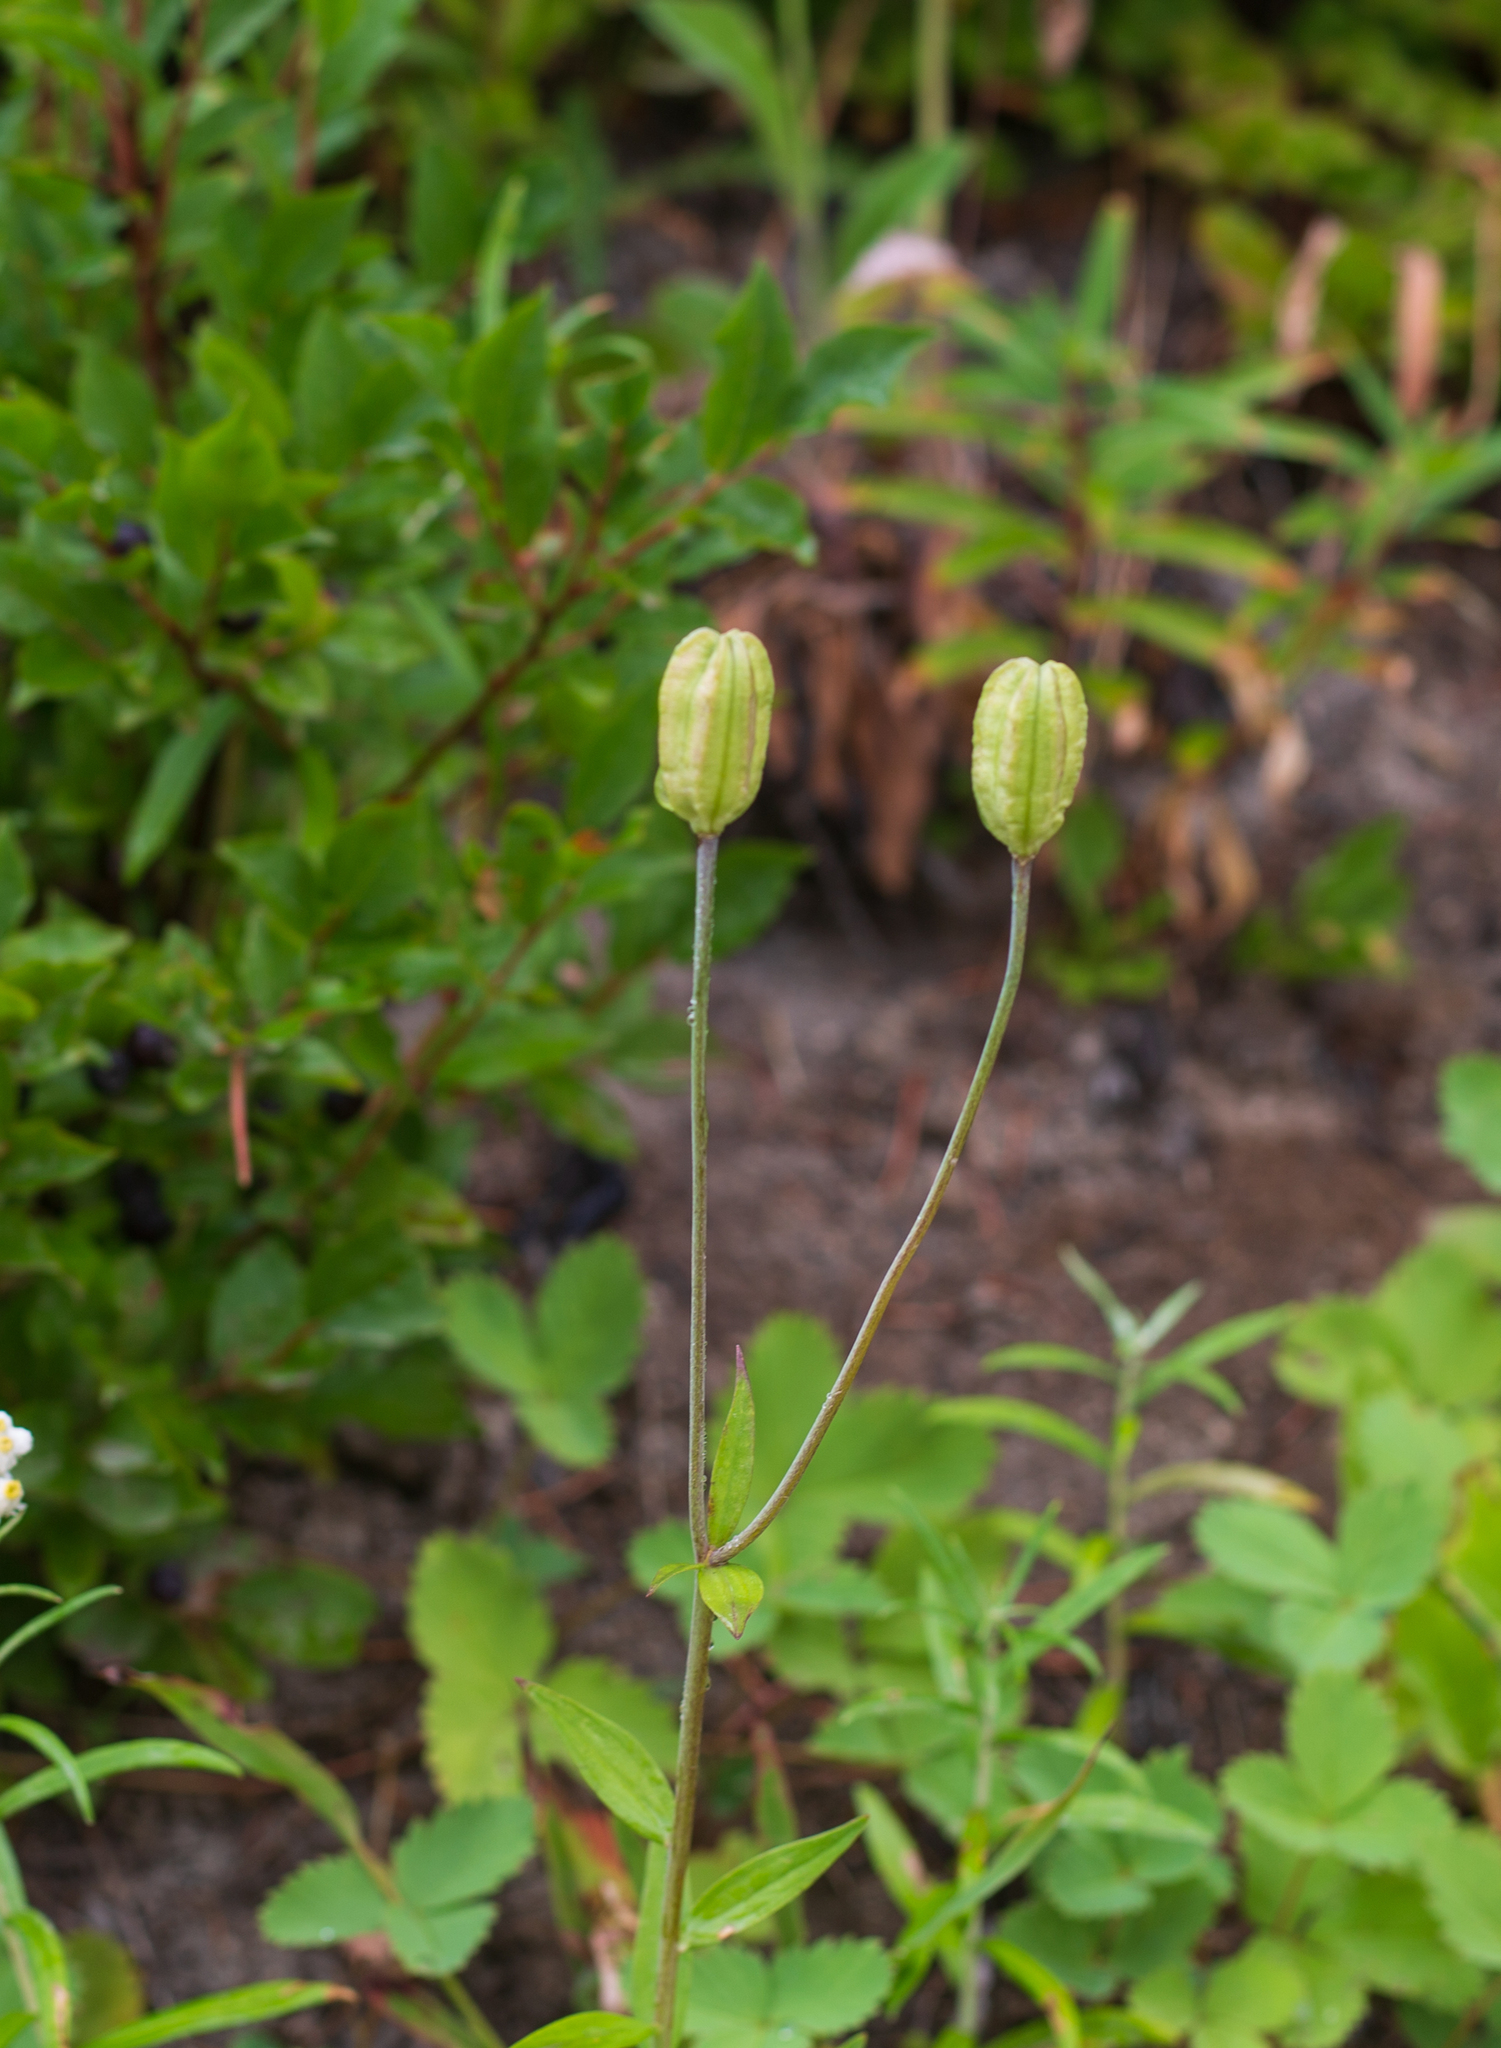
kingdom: Plantae
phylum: Tracheophyta
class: Liliopsida
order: Liliales
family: Liliaceae
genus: Lilium
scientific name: Lilium columbianum
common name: Columbia lily
